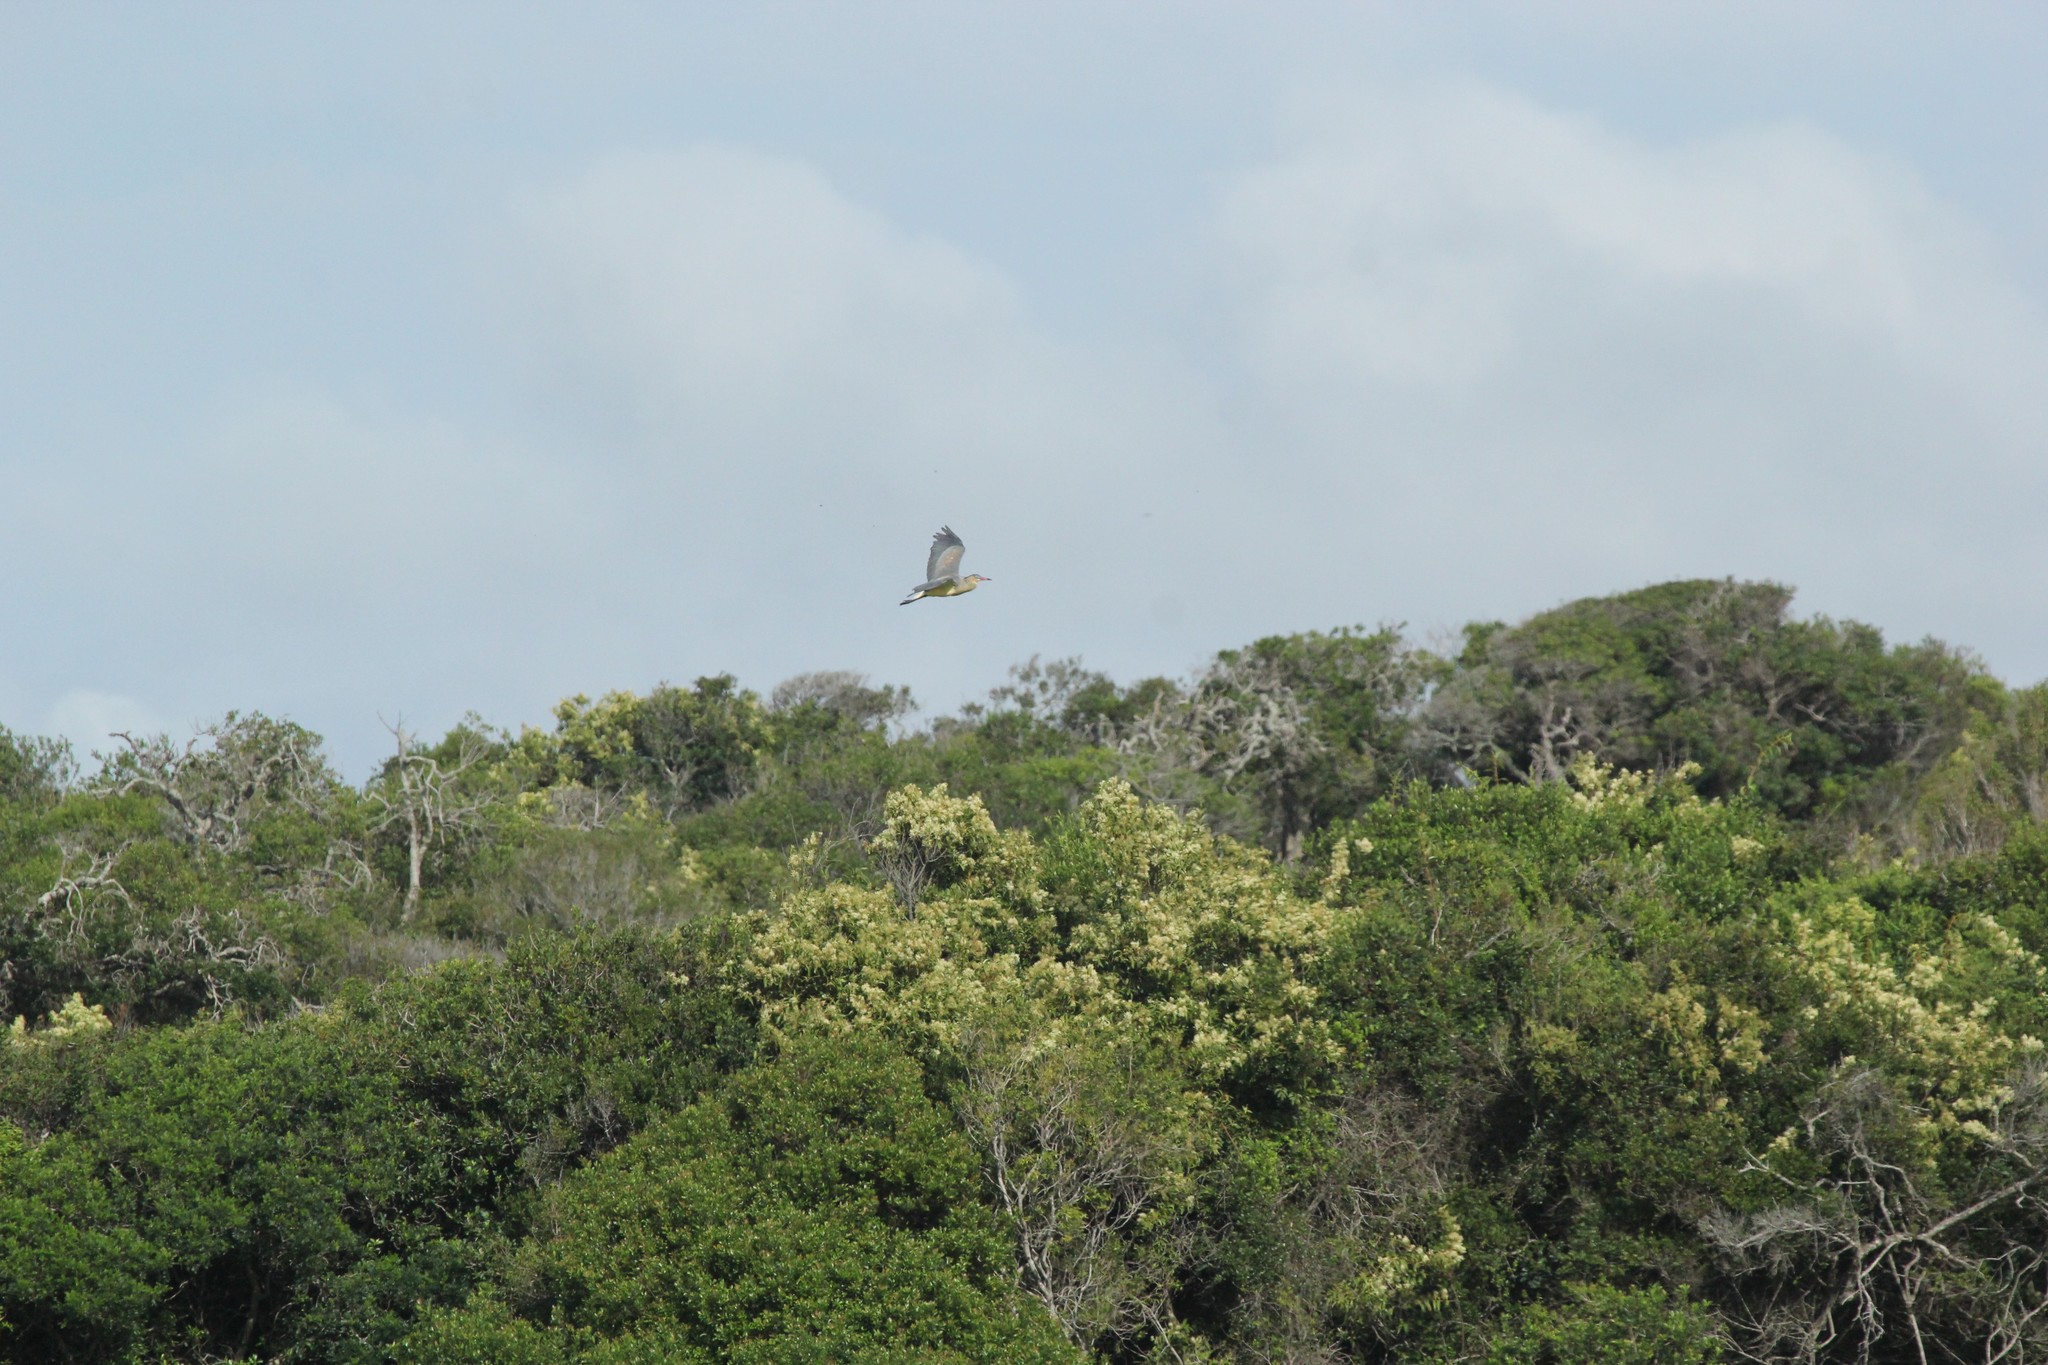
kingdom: Animalia
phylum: Chordata
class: Aves
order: Pelecaniformes
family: Ardeidae
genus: Syrigma
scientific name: Syrigma sibilatrix
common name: Whistling heron
